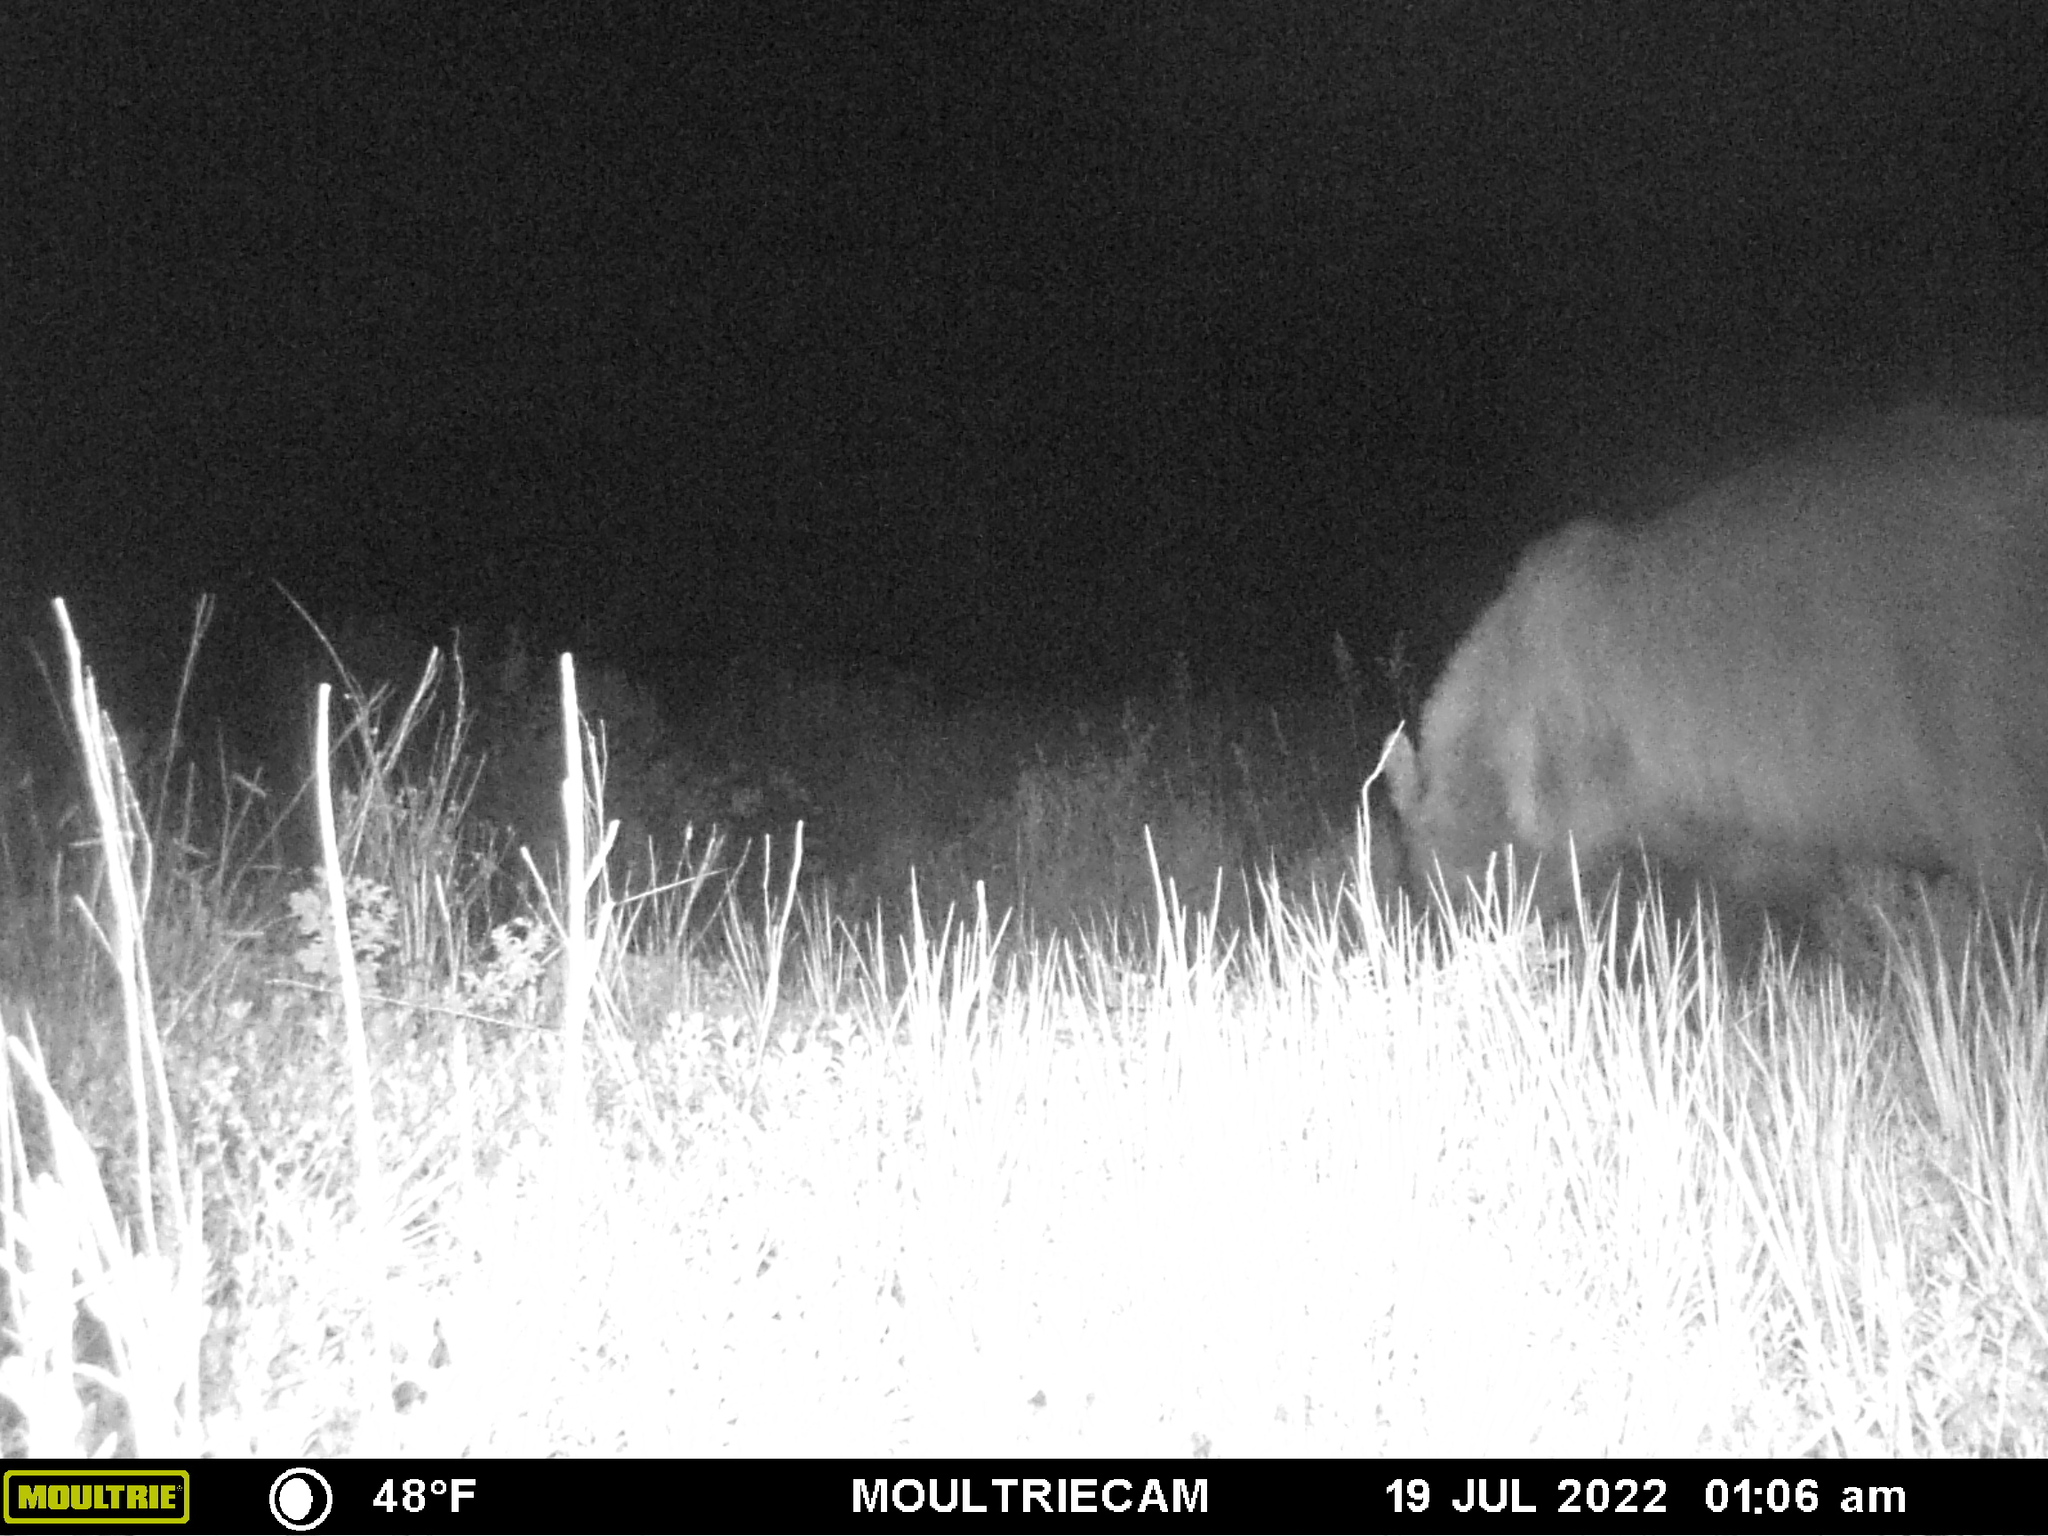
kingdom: Animalia
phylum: Chordata
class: Mammalia
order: Carnivora
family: Ursidae
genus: Ursus
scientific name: Ursus americanus
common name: American black bear
